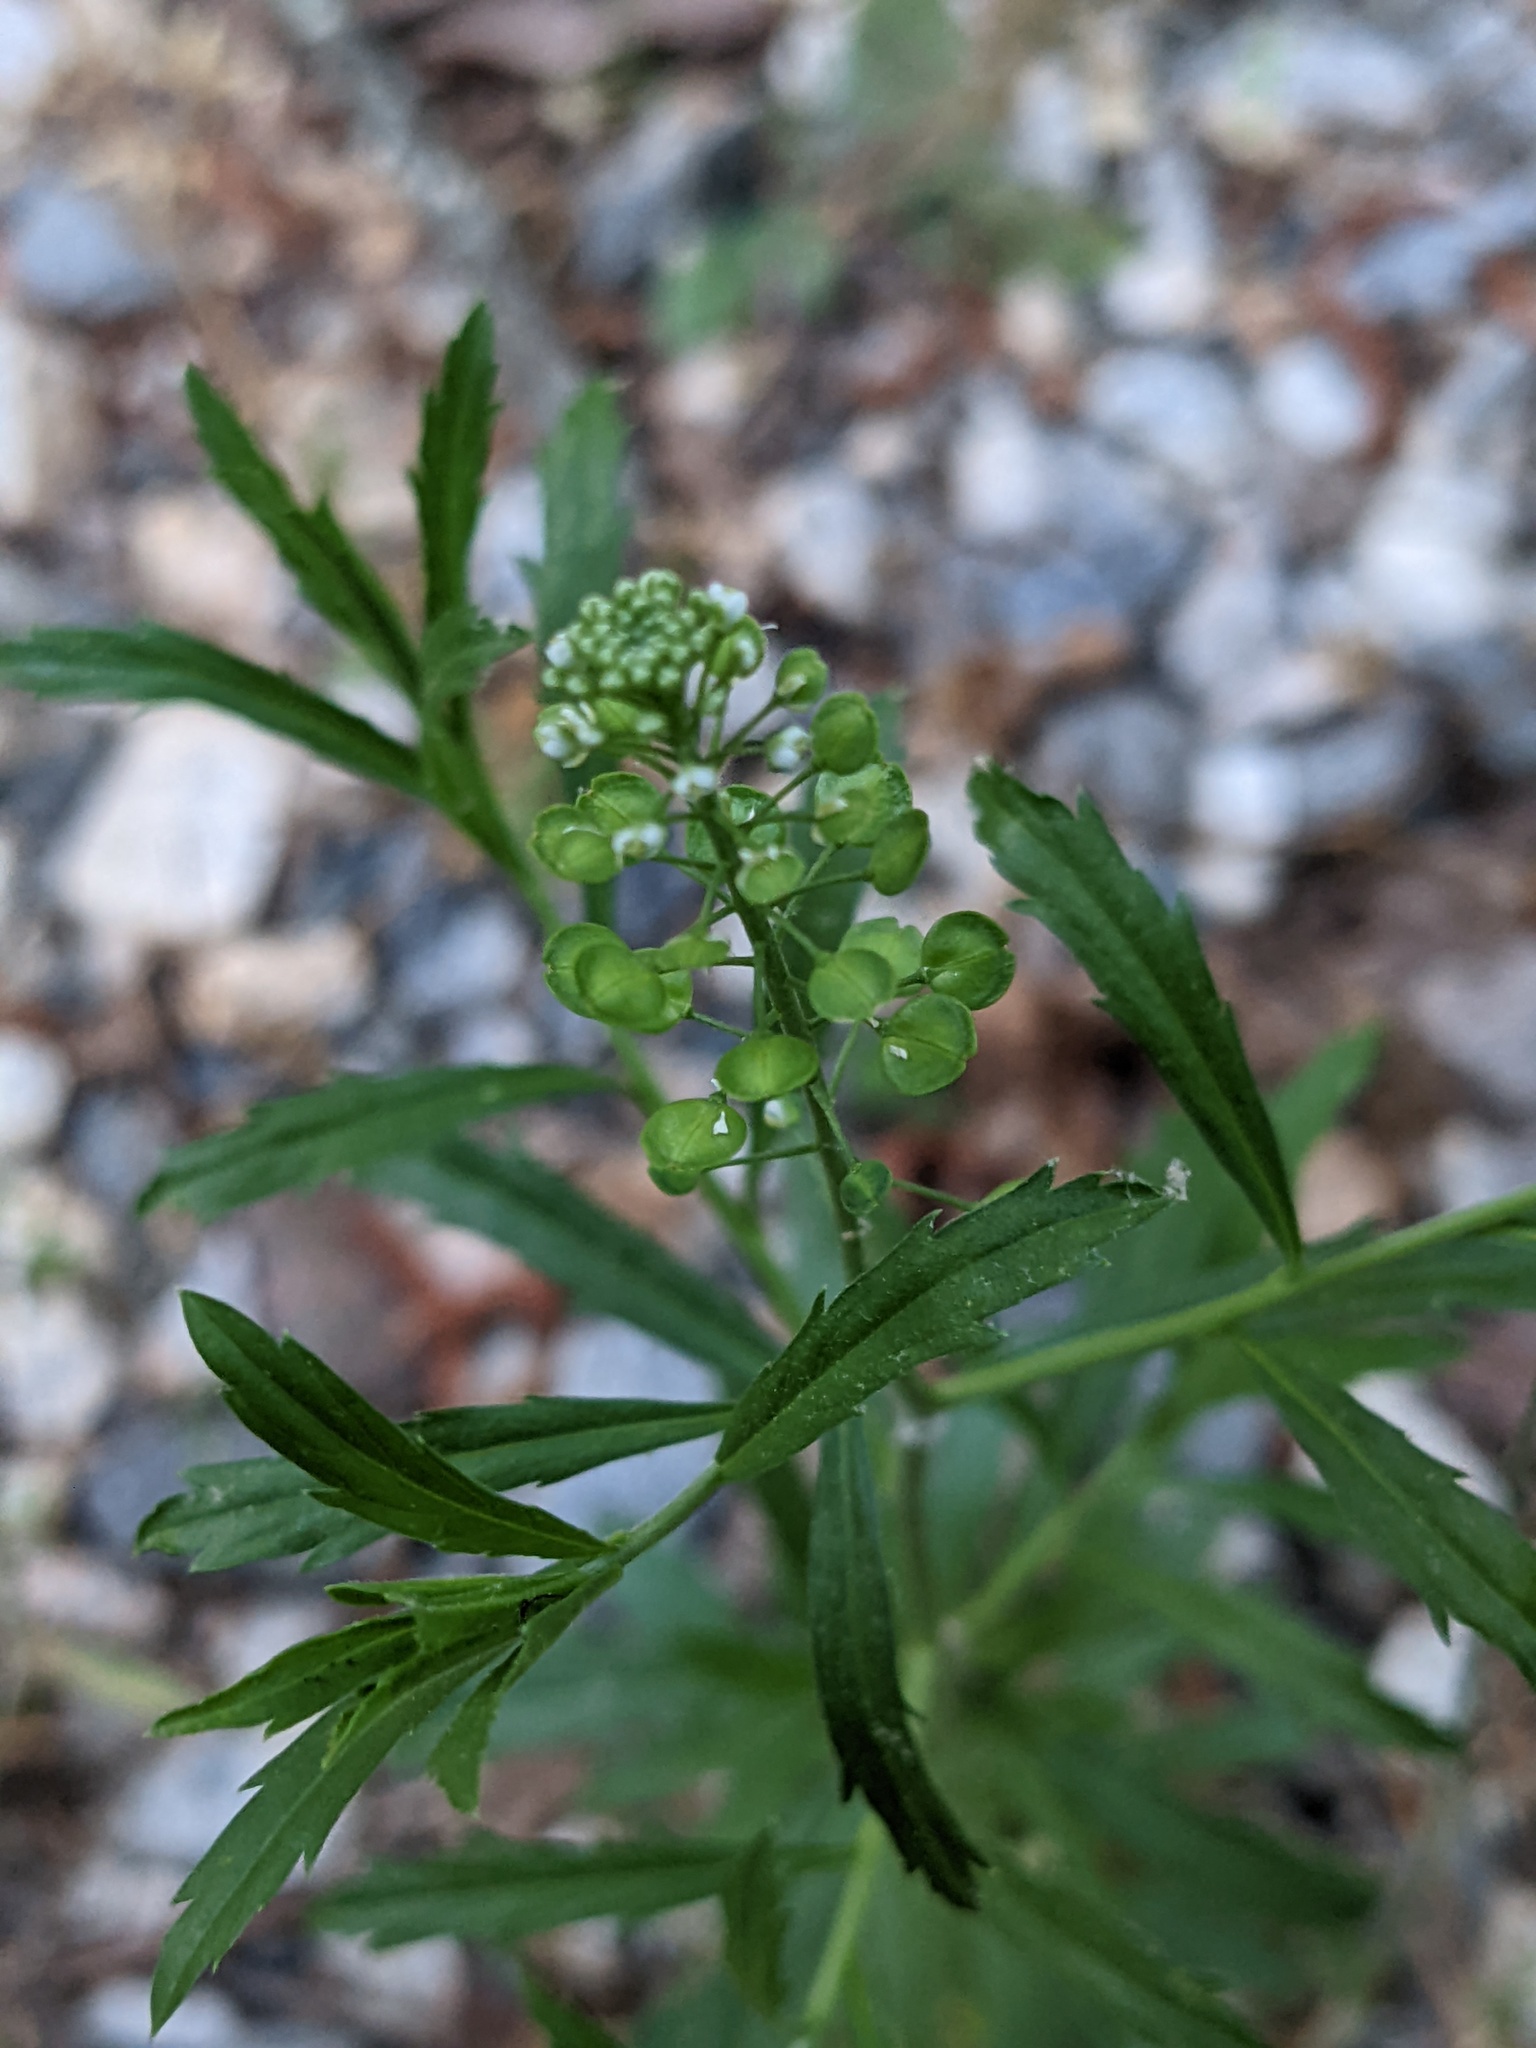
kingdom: Plantae
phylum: Tracheophyta
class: Magnoliopsida
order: Brassicales
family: Brassicaceae
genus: Lepidium
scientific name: Lepidium virginicum
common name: Least pepperwort
